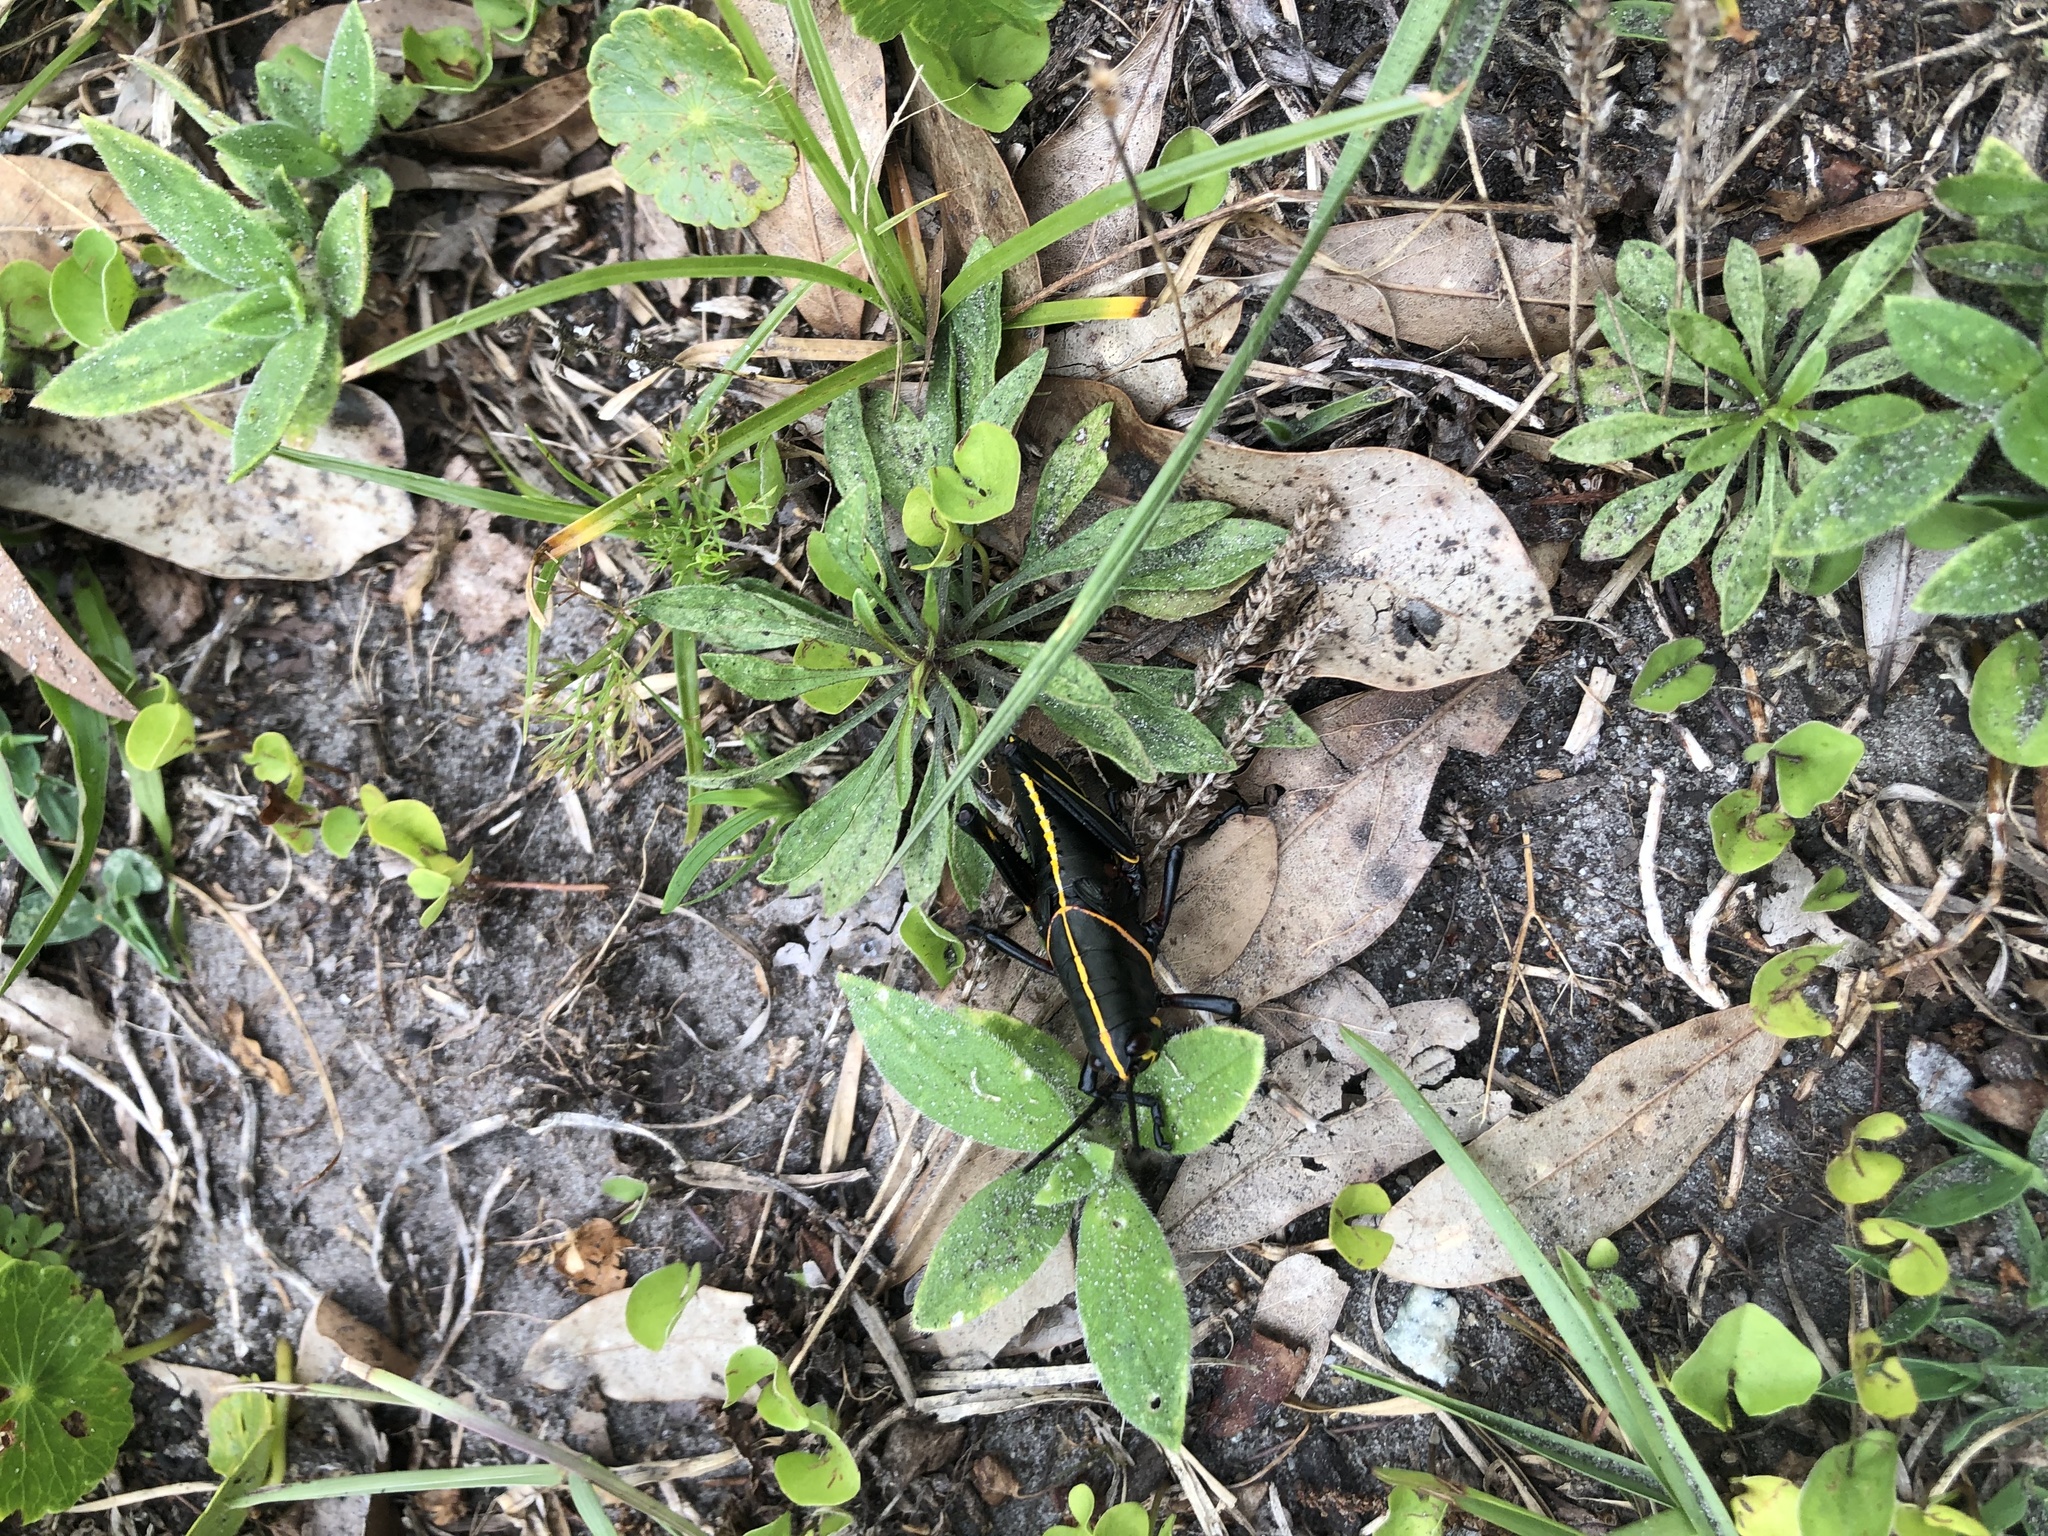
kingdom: Animalia
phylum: Arthropoda
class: Insecta
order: Orthoptera
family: Romaleidae
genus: Romalea
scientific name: Romalea microptera
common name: Eastern lubber grasshopper
